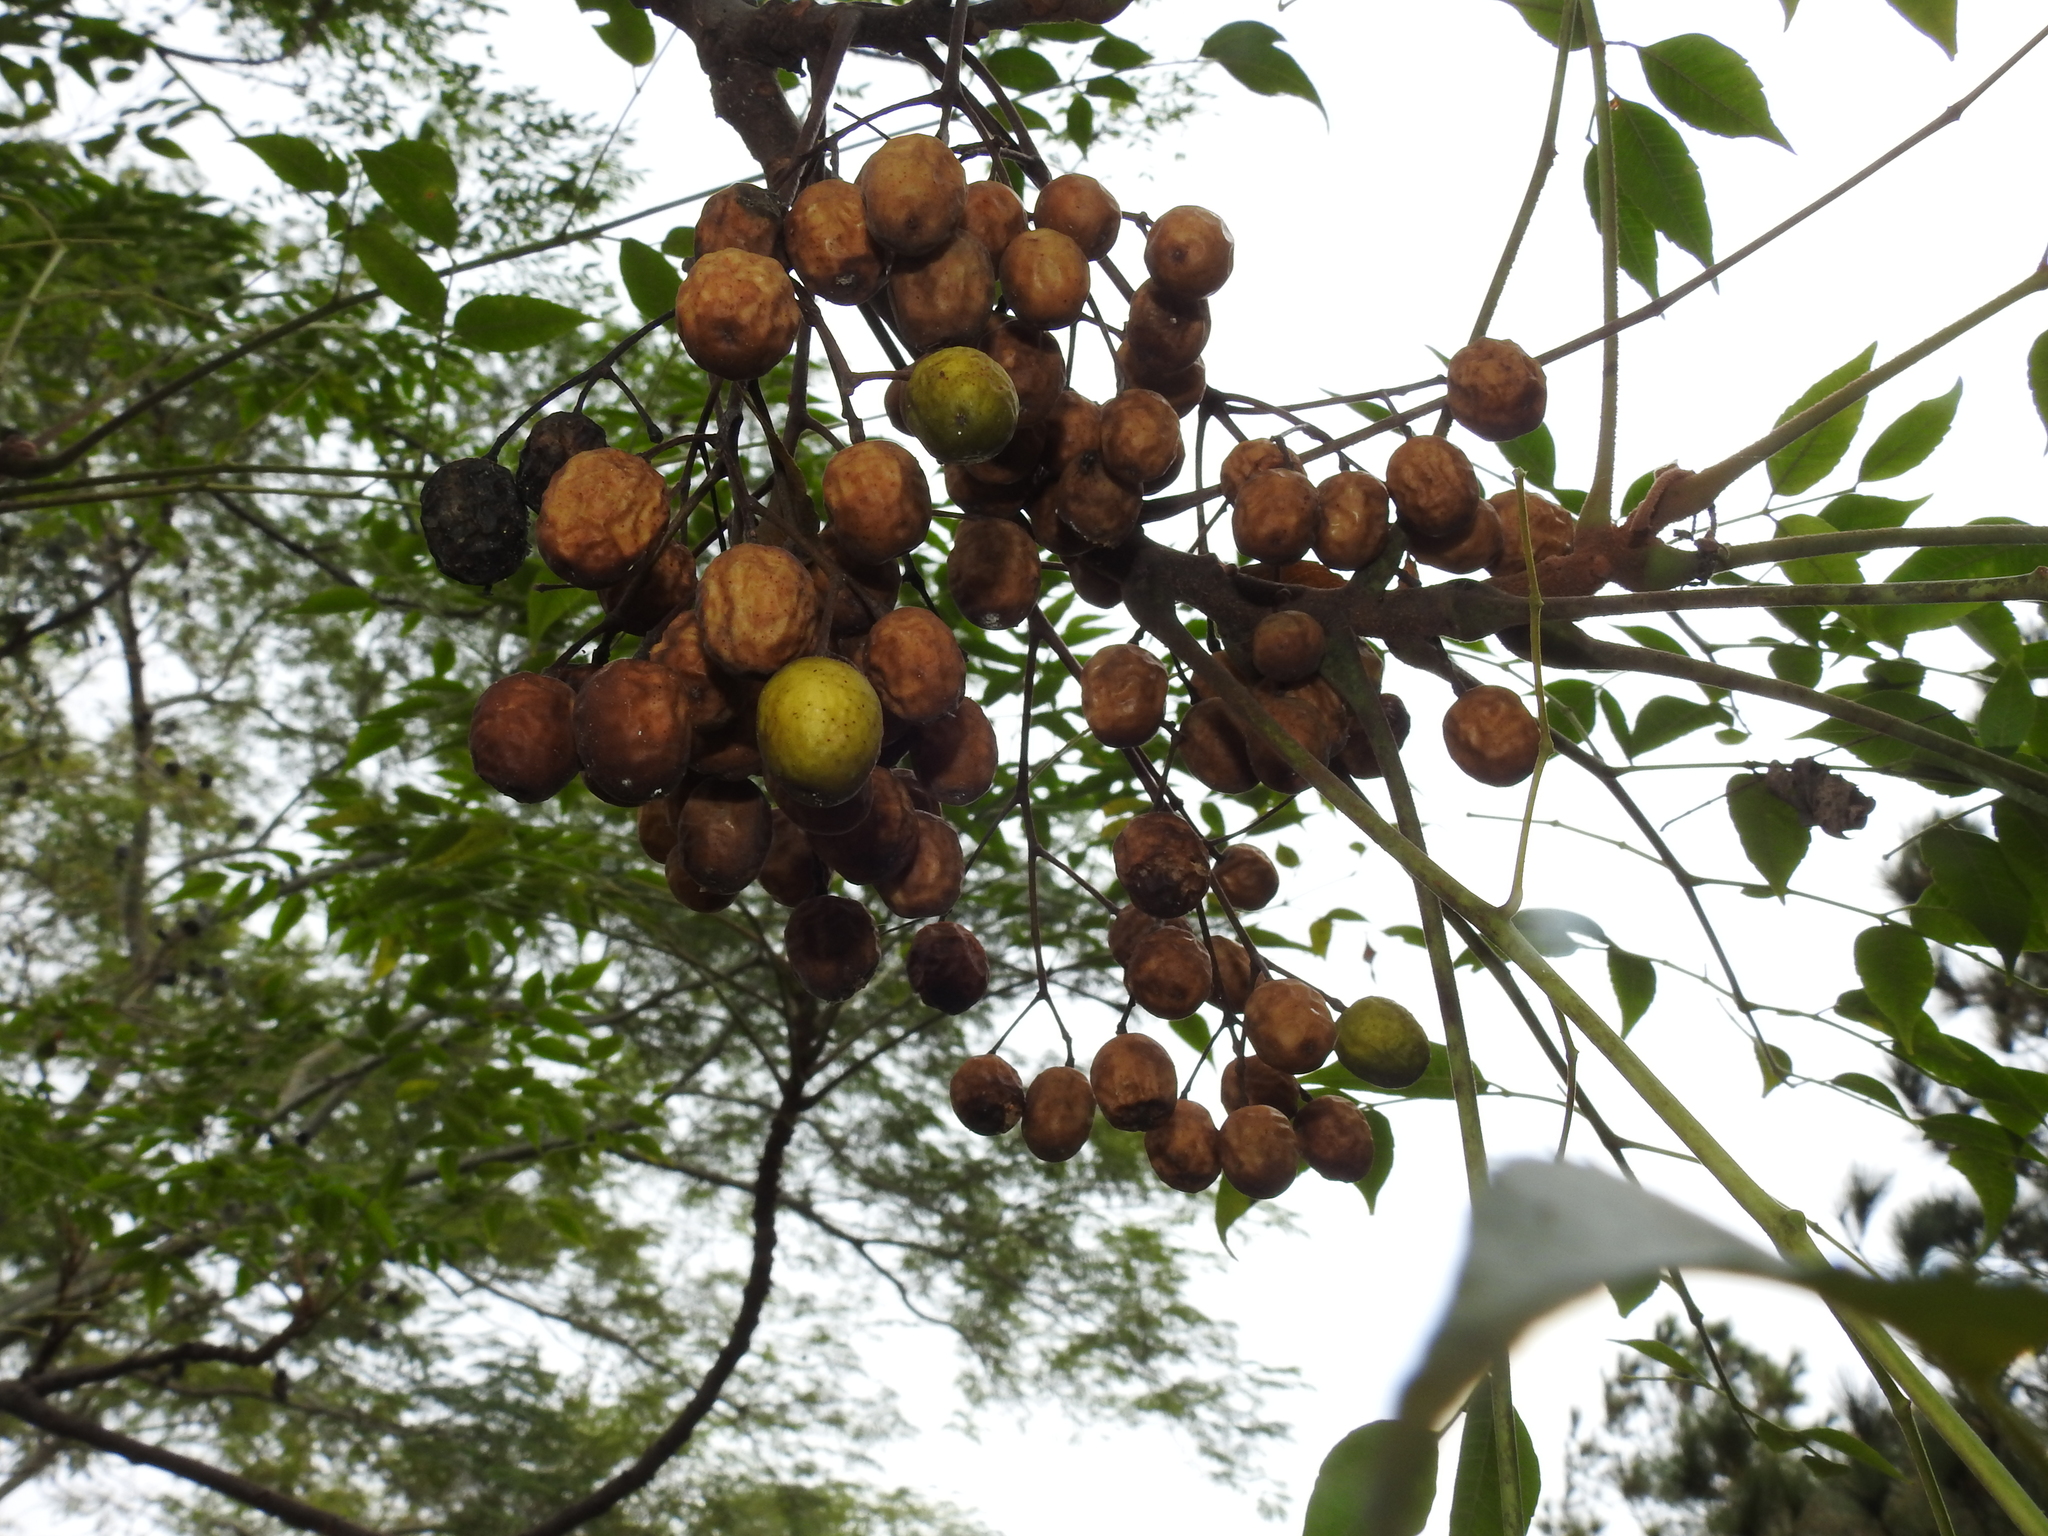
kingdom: Plantae
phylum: Tracheophyta
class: Magnoliopsida
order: Sapindales
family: Meliaceae
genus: Melia
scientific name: Melia azedarach
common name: Chinaberrytree
